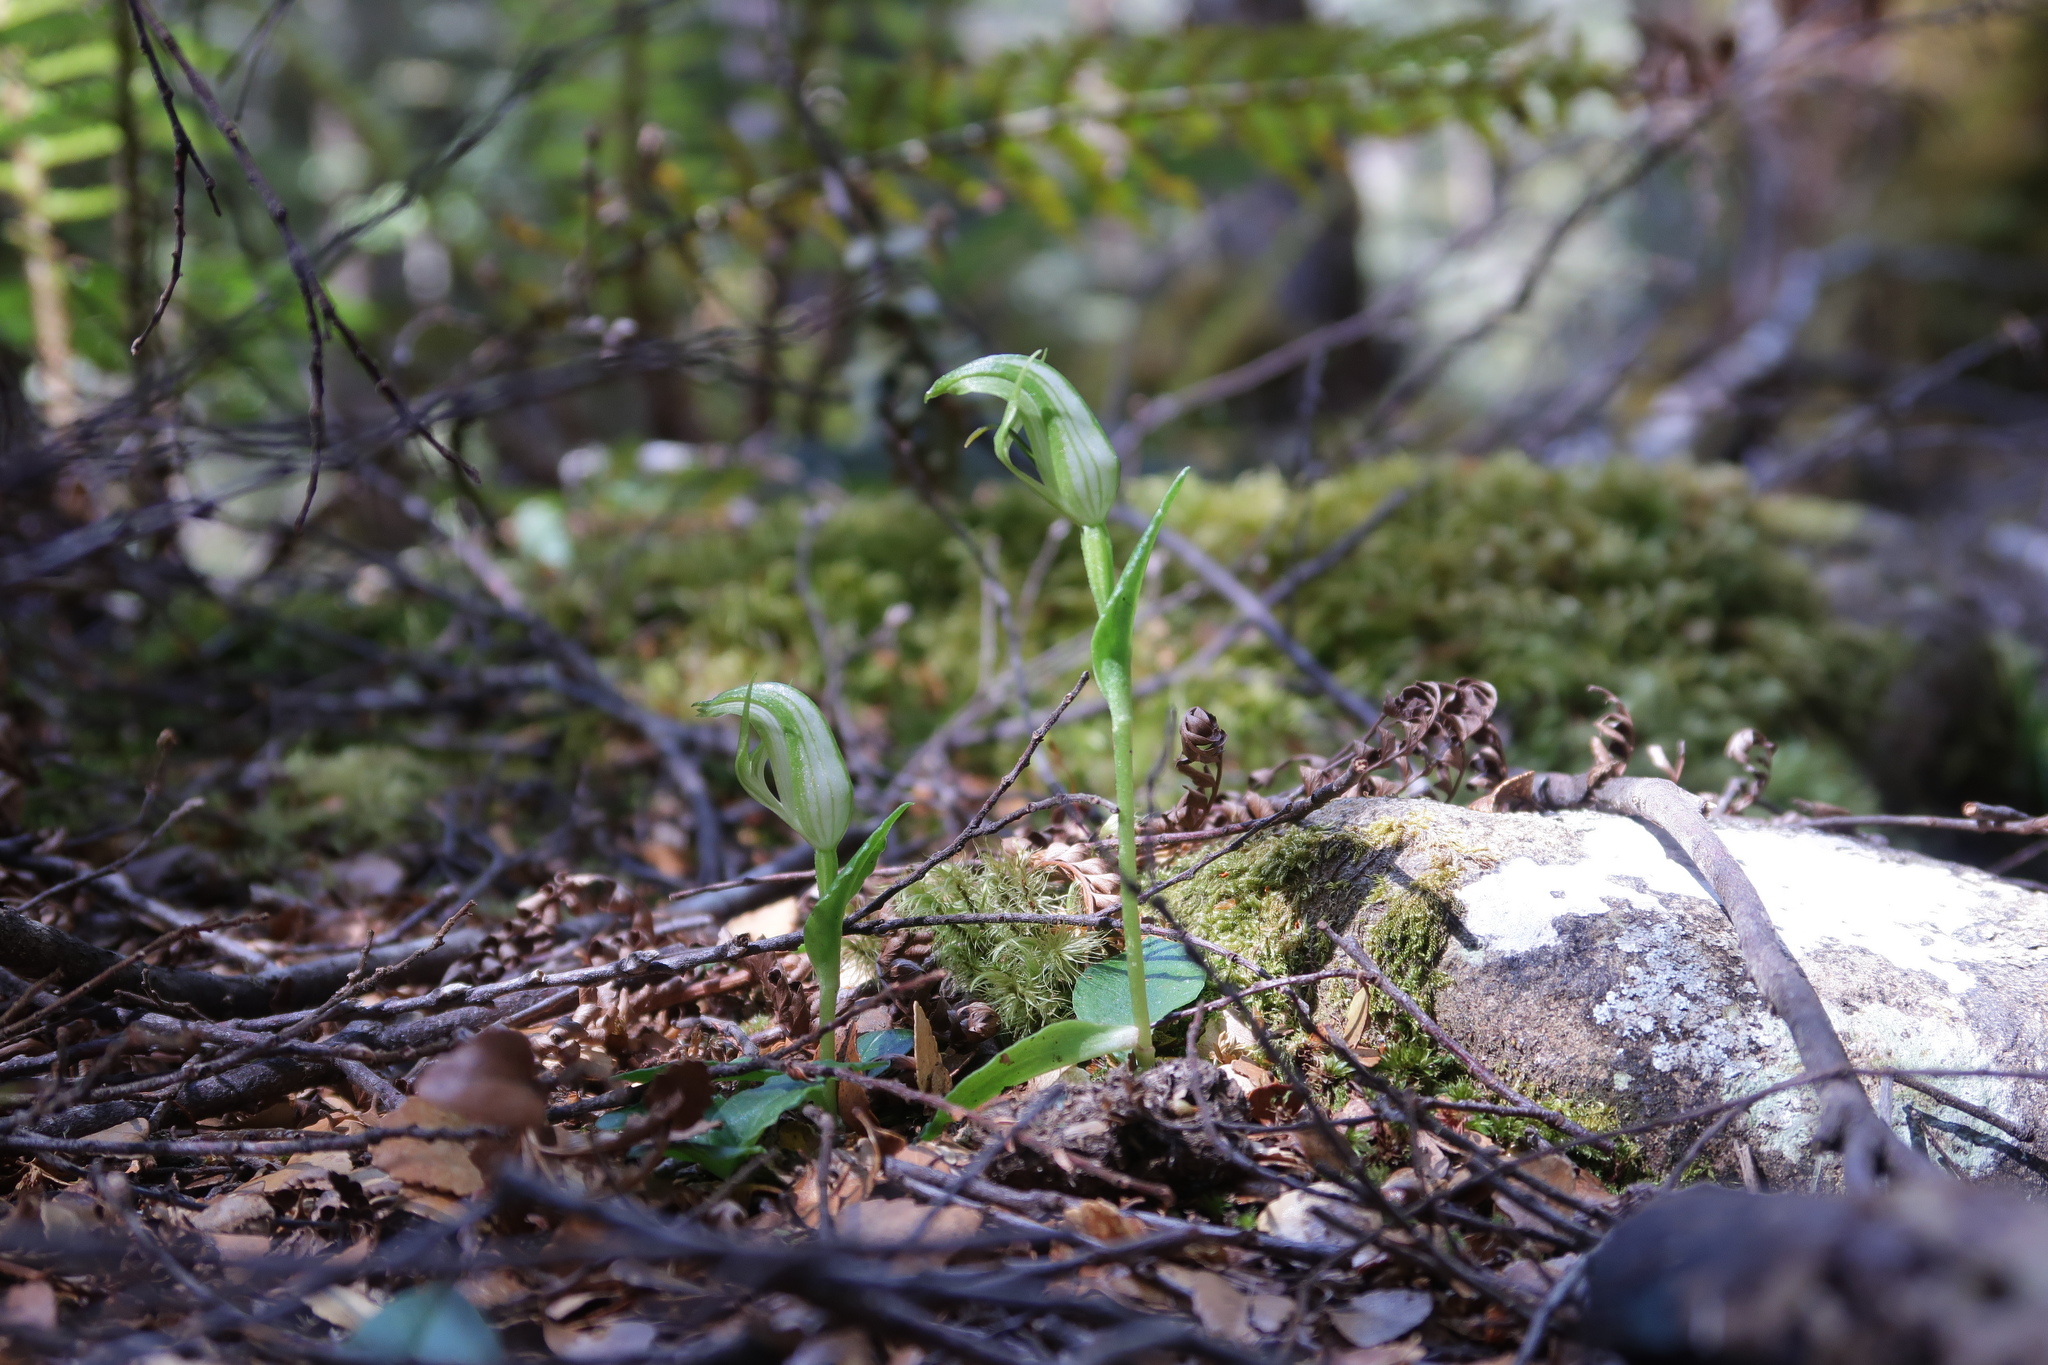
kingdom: Plantae
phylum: Tracheophyta
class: Liliopsida
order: Asparagales
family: Orchidaceae
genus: Pterostylis
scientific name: Pterostylis scabrida
